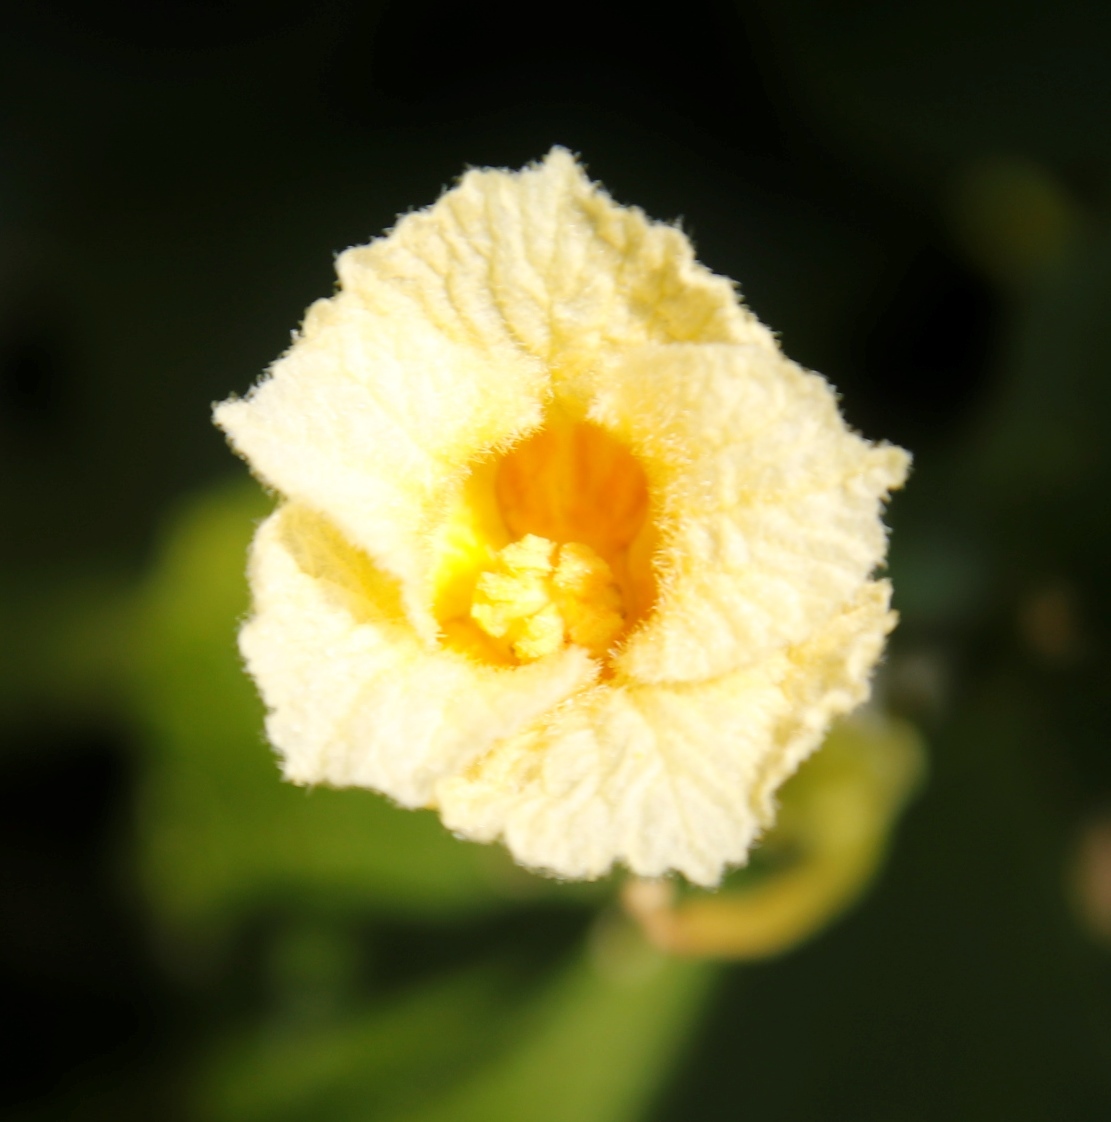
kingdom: Plantae
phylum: Tracheophyta
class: Magnoliopsida
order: Cucurbitales
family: Cucurbitaceae
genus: Momordica
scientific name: Momordica foetida
